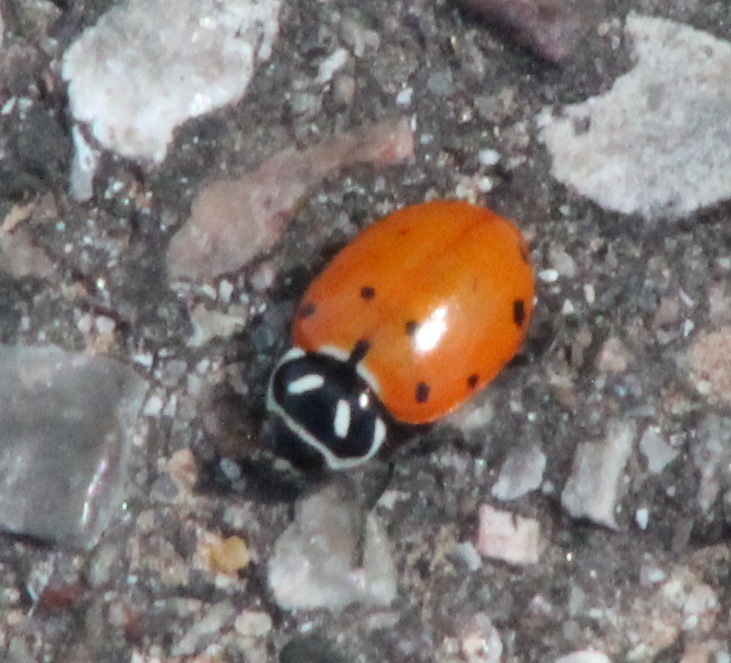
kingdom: Animalia
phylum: Arthropoda
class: Insecta
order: Coleoptera
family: Coccinellidae
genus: Hippodamia
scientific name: Hippodamia convergens
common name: Convergent lady beetle
